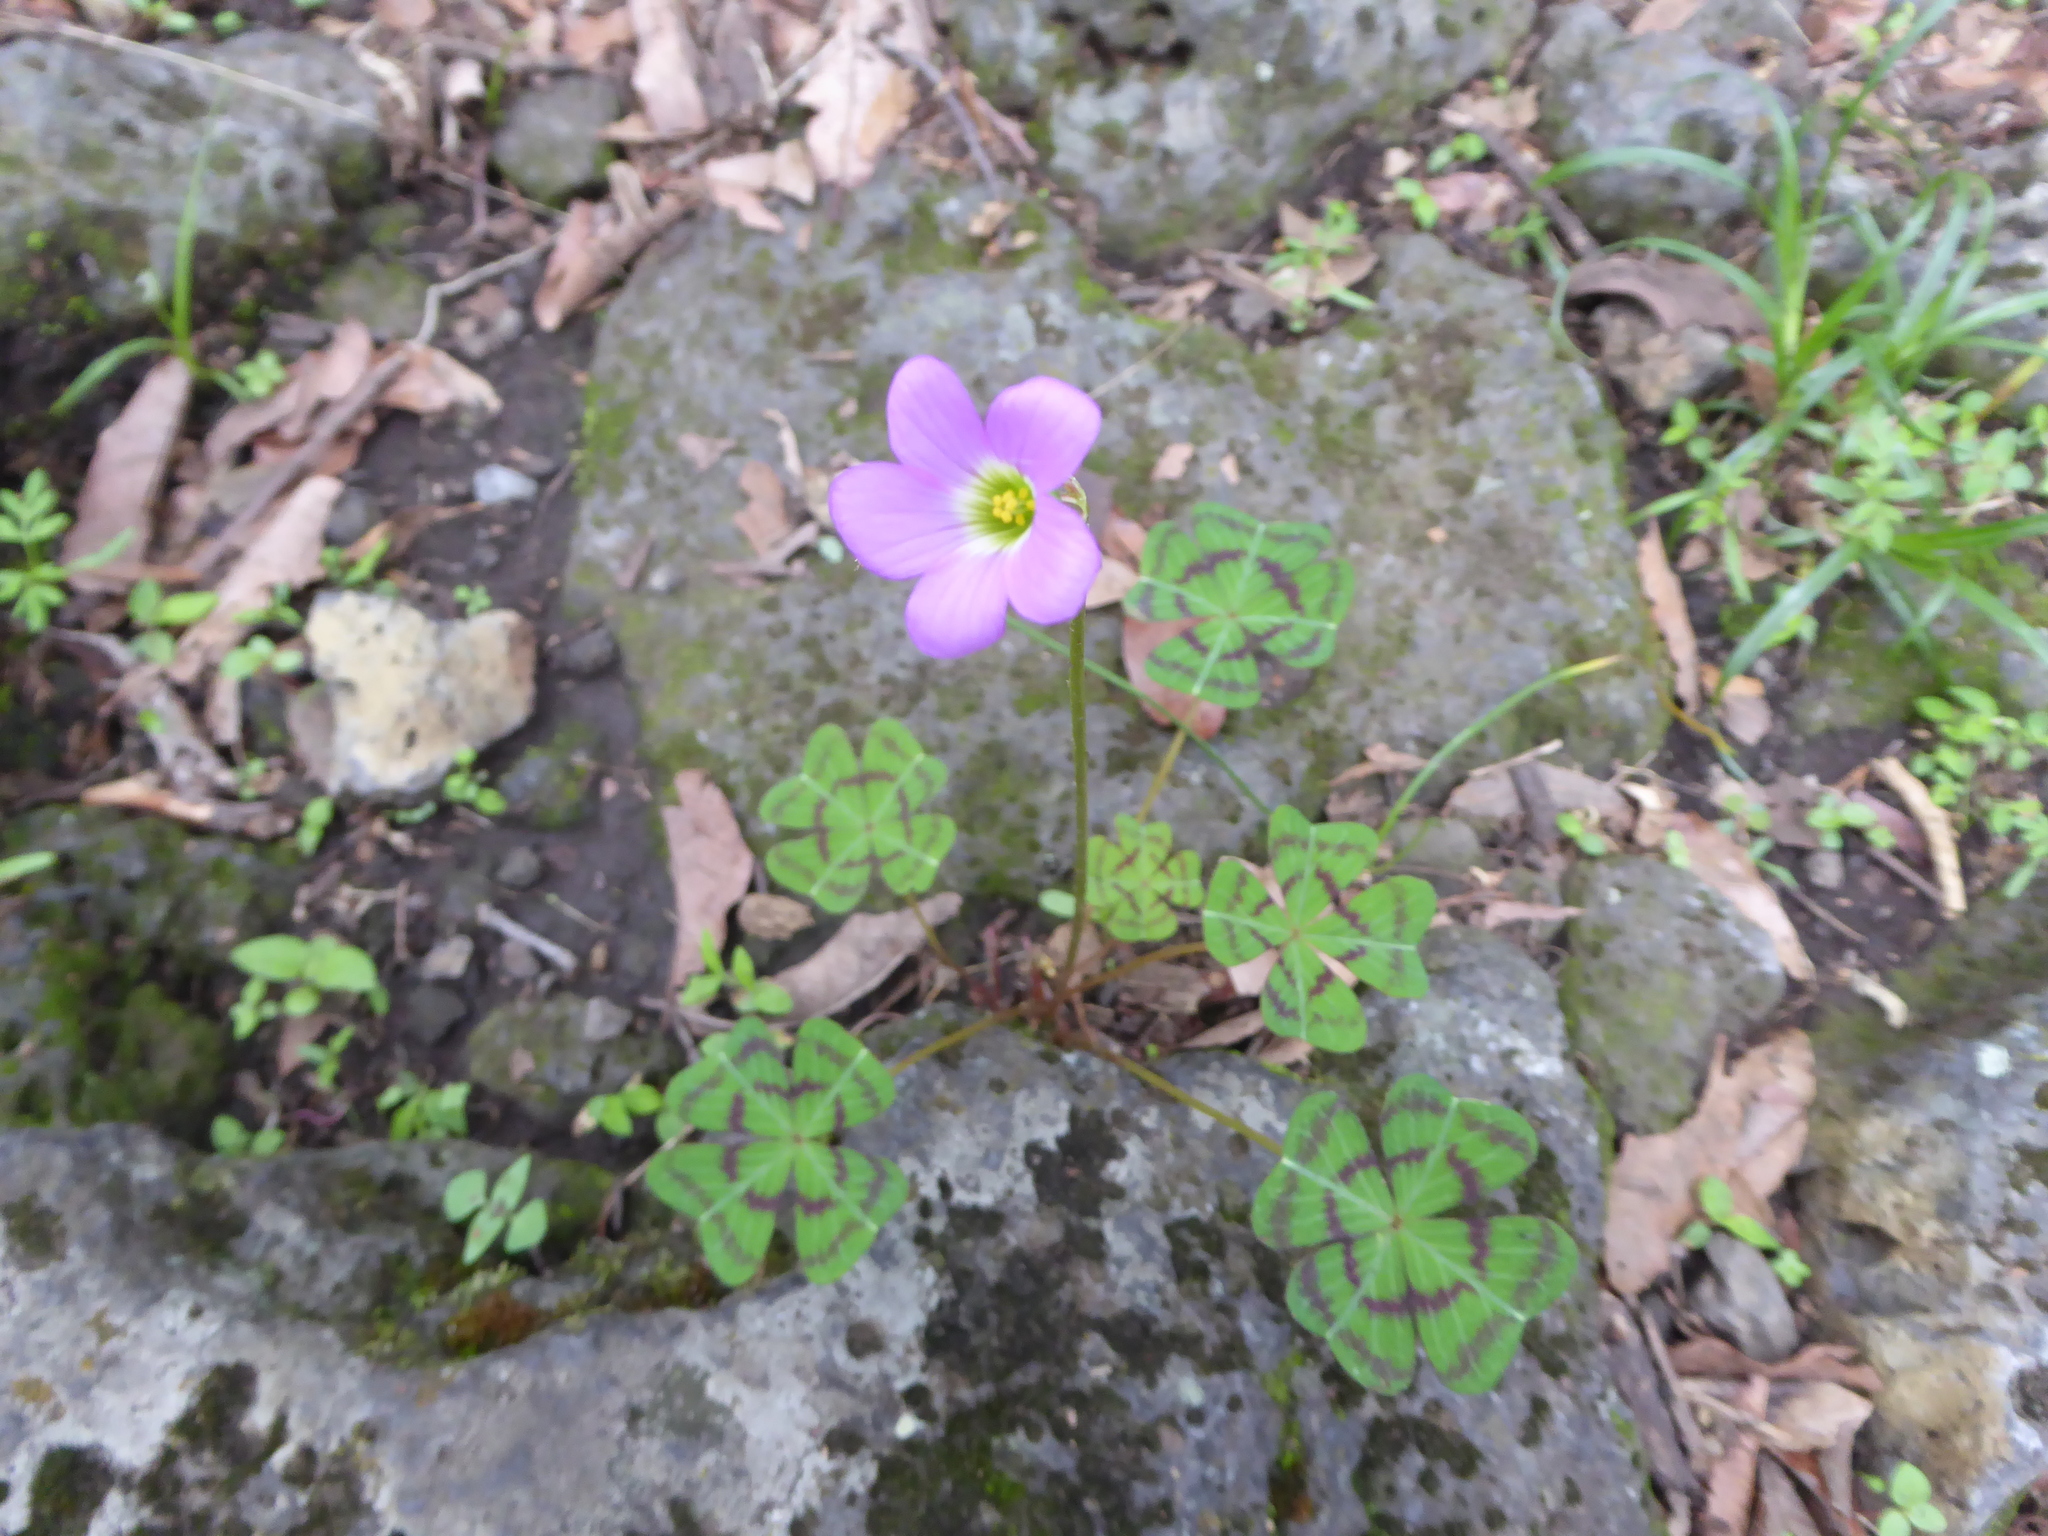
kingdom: Plantae
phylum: Tracheophyta
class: Magnoliopsida
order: Oxalidales
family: Oxalidaceae
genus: Oxalis
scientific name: Oxalis tetraphylla
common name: Four-leaved pink-sorrel
